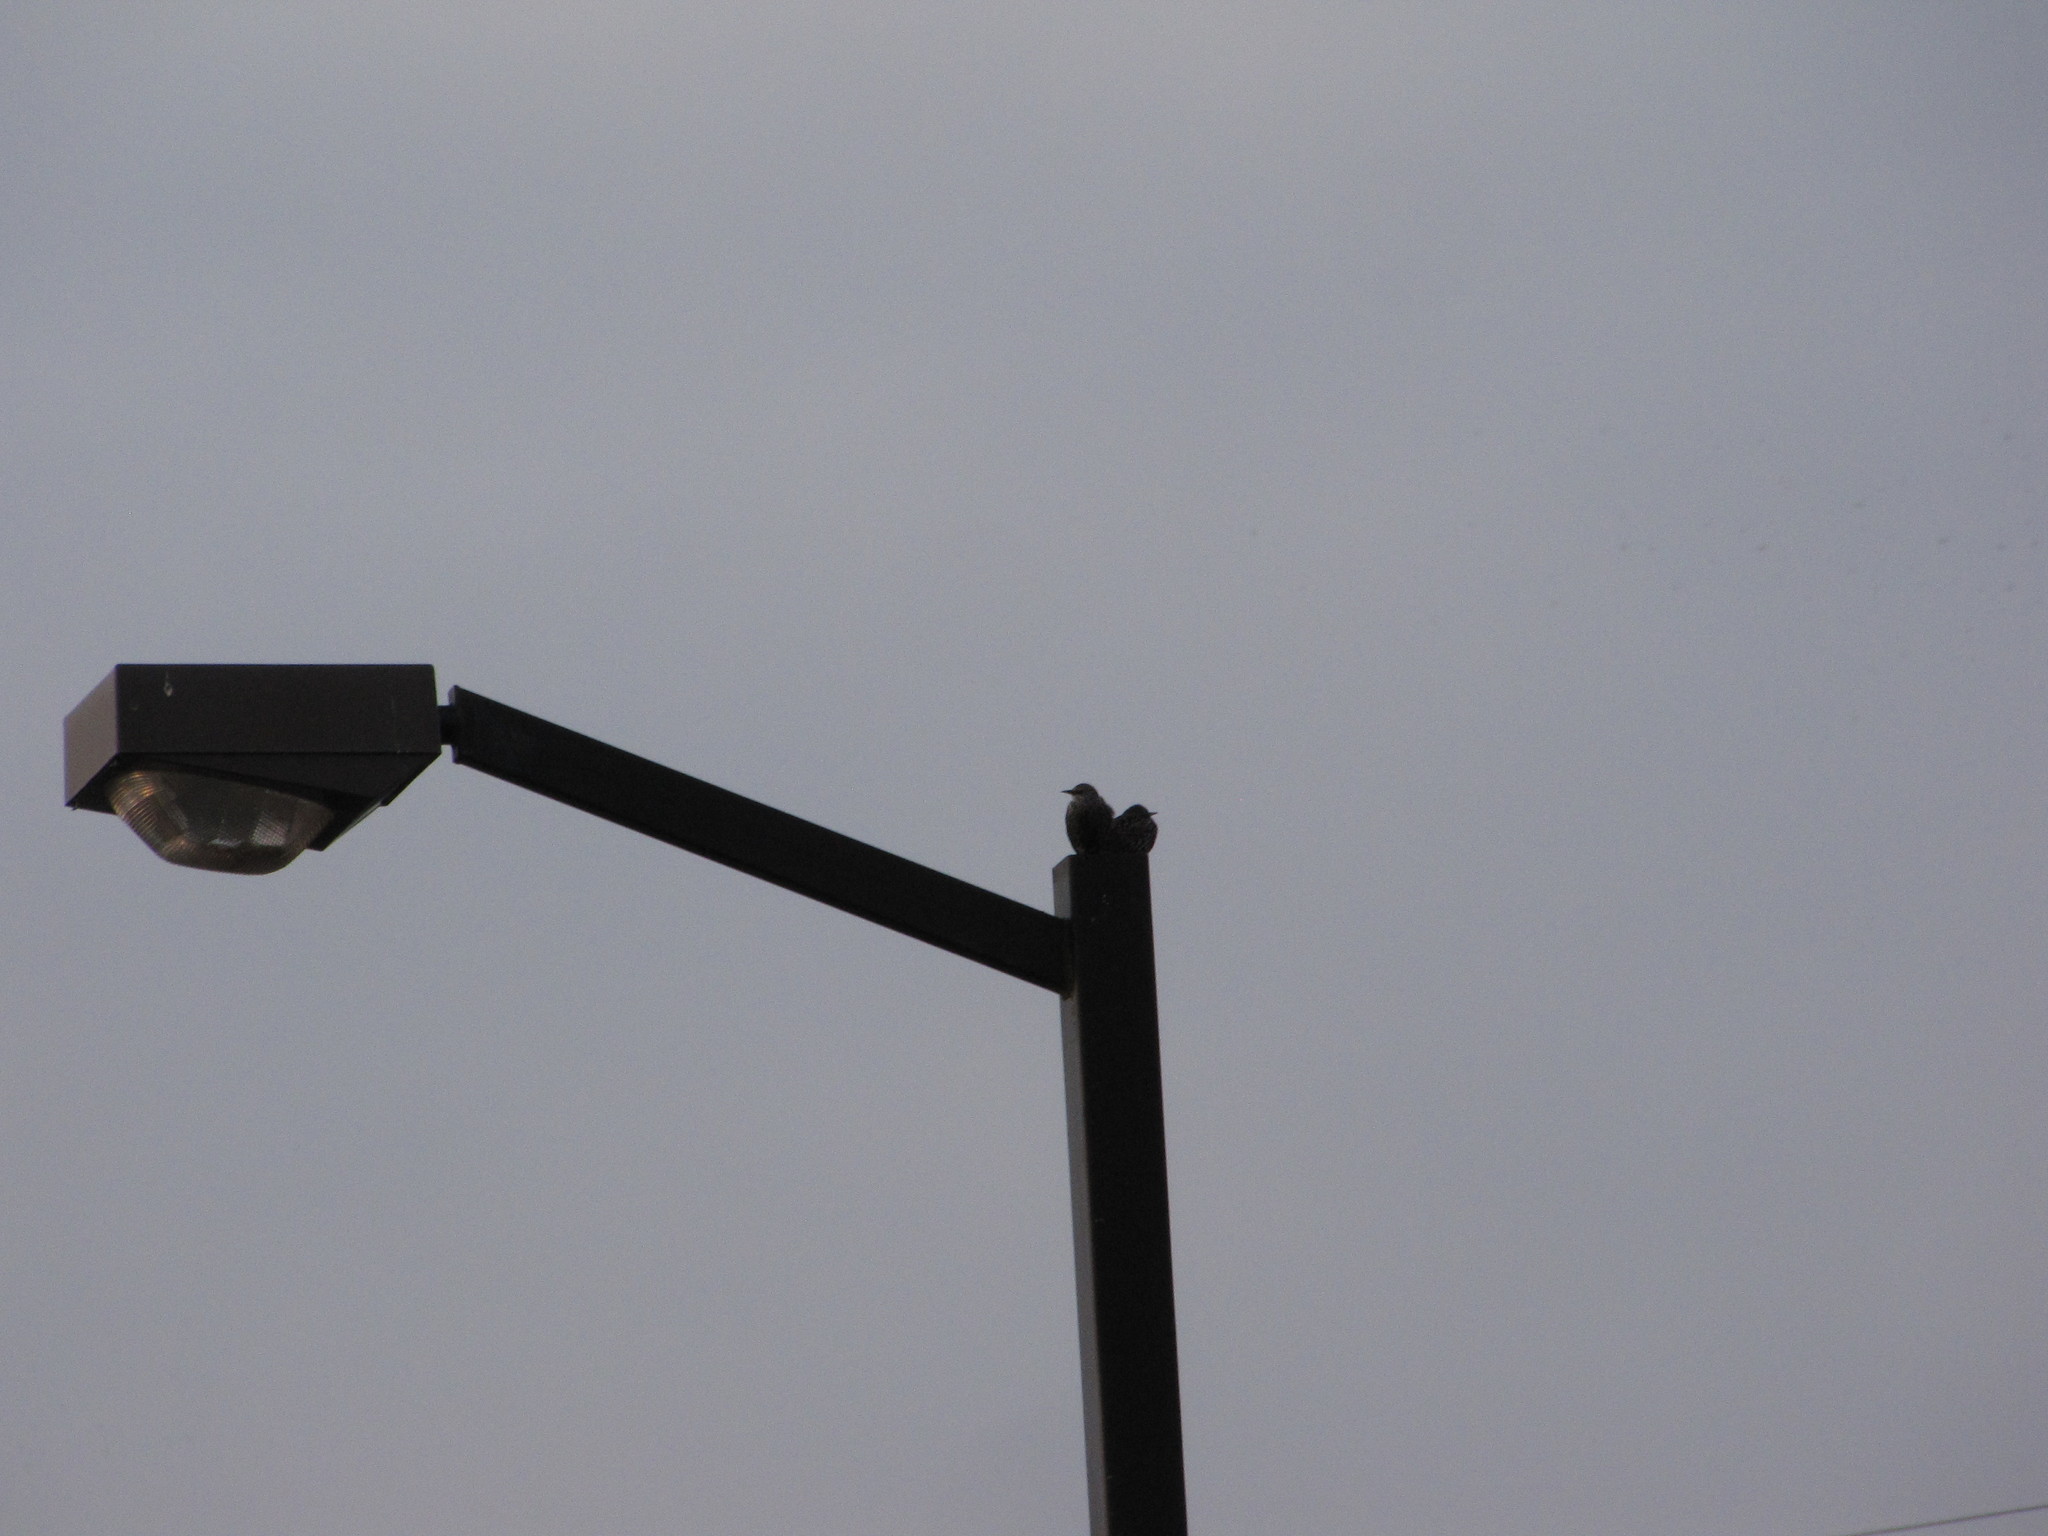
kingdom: Animalia
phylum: Chordata
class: Aves
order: Passeriformes
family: Sturnidae
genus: Sturnus
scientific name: Sturnus vulgaris
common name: Common starling
